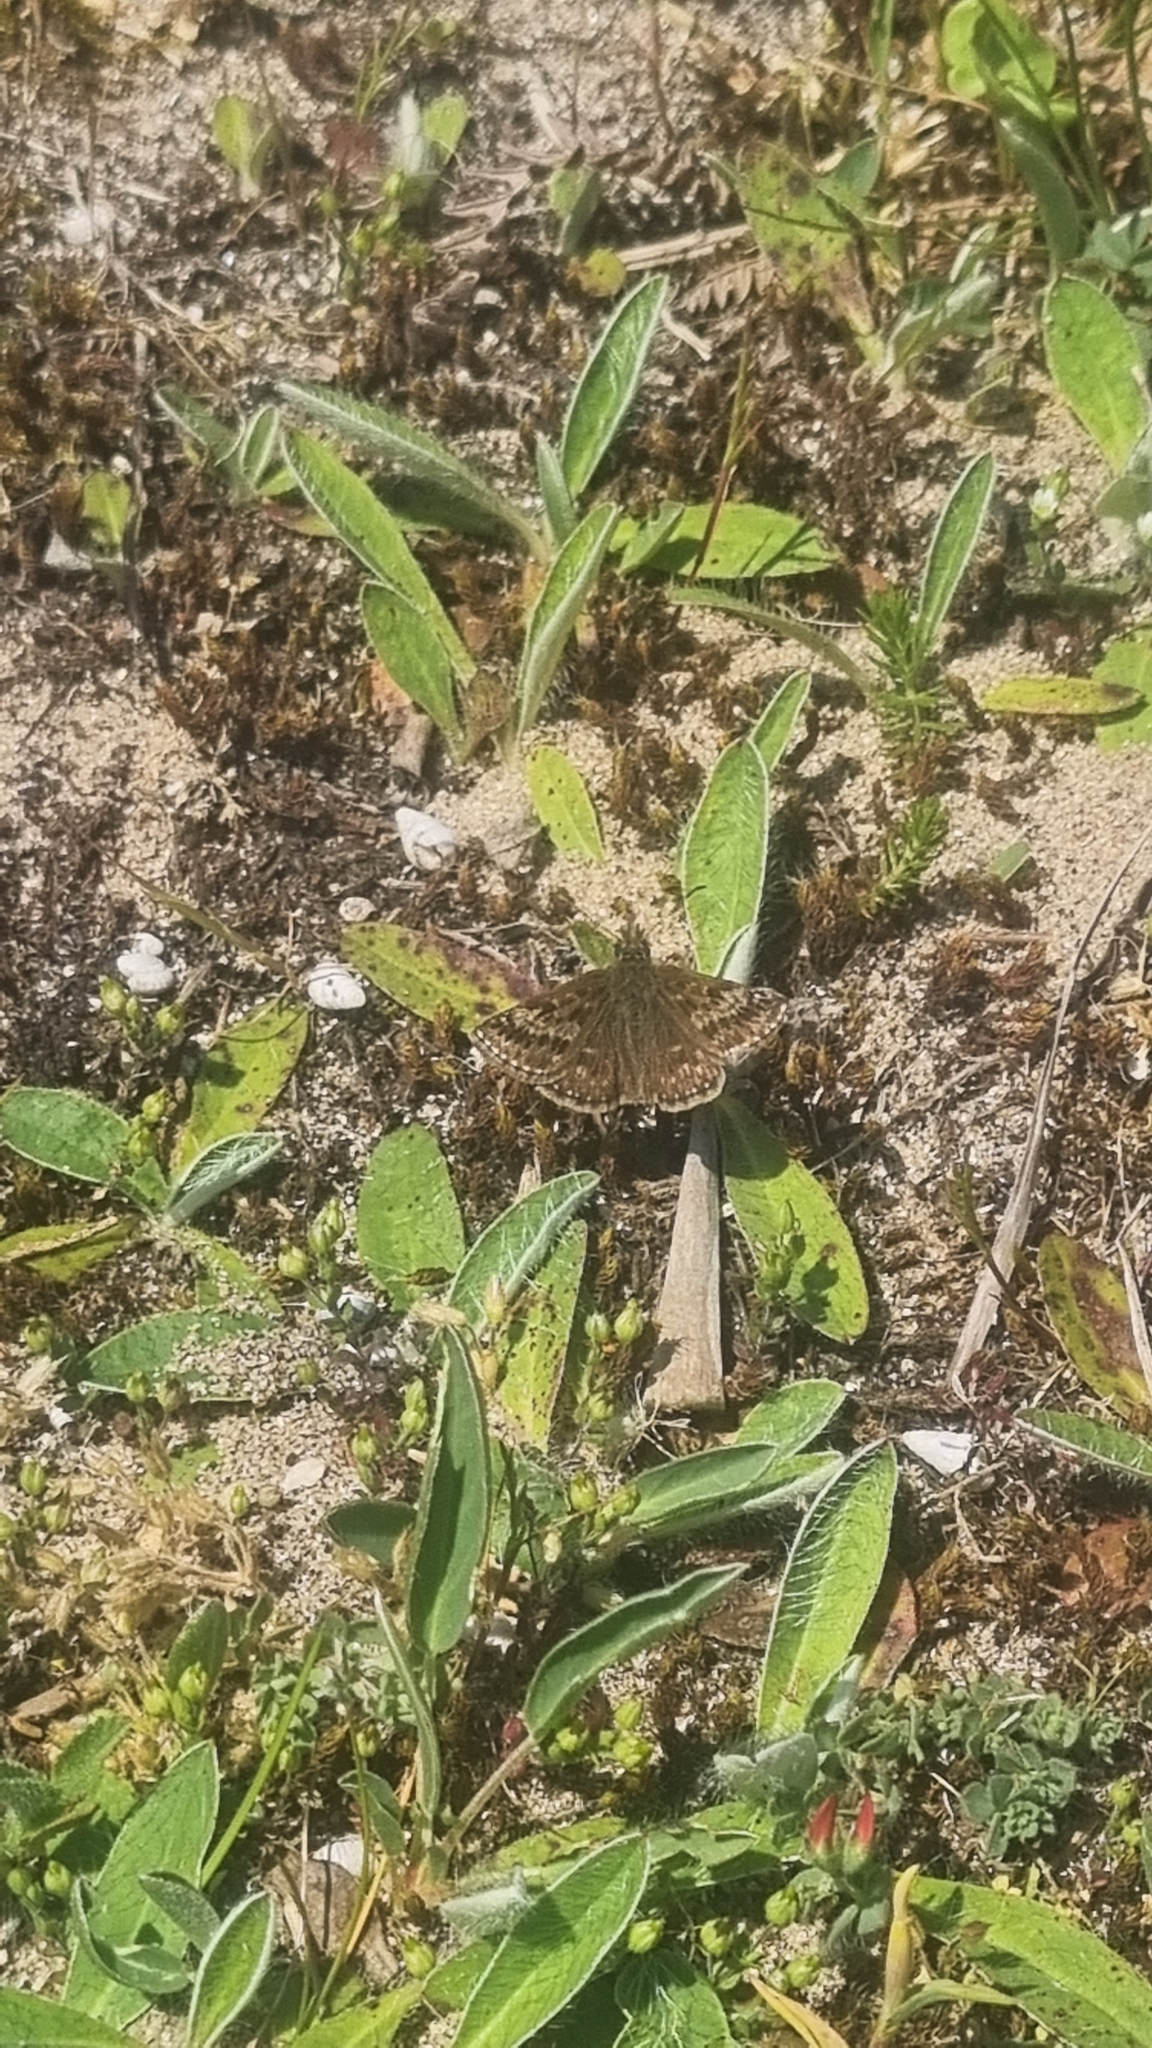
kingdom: Animalia
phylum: Arthropoda
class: Insecta
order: Lepidoptera
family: Hesperiidae
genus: Erynnis
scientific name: Erynnis tages
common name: Dingy skipper
